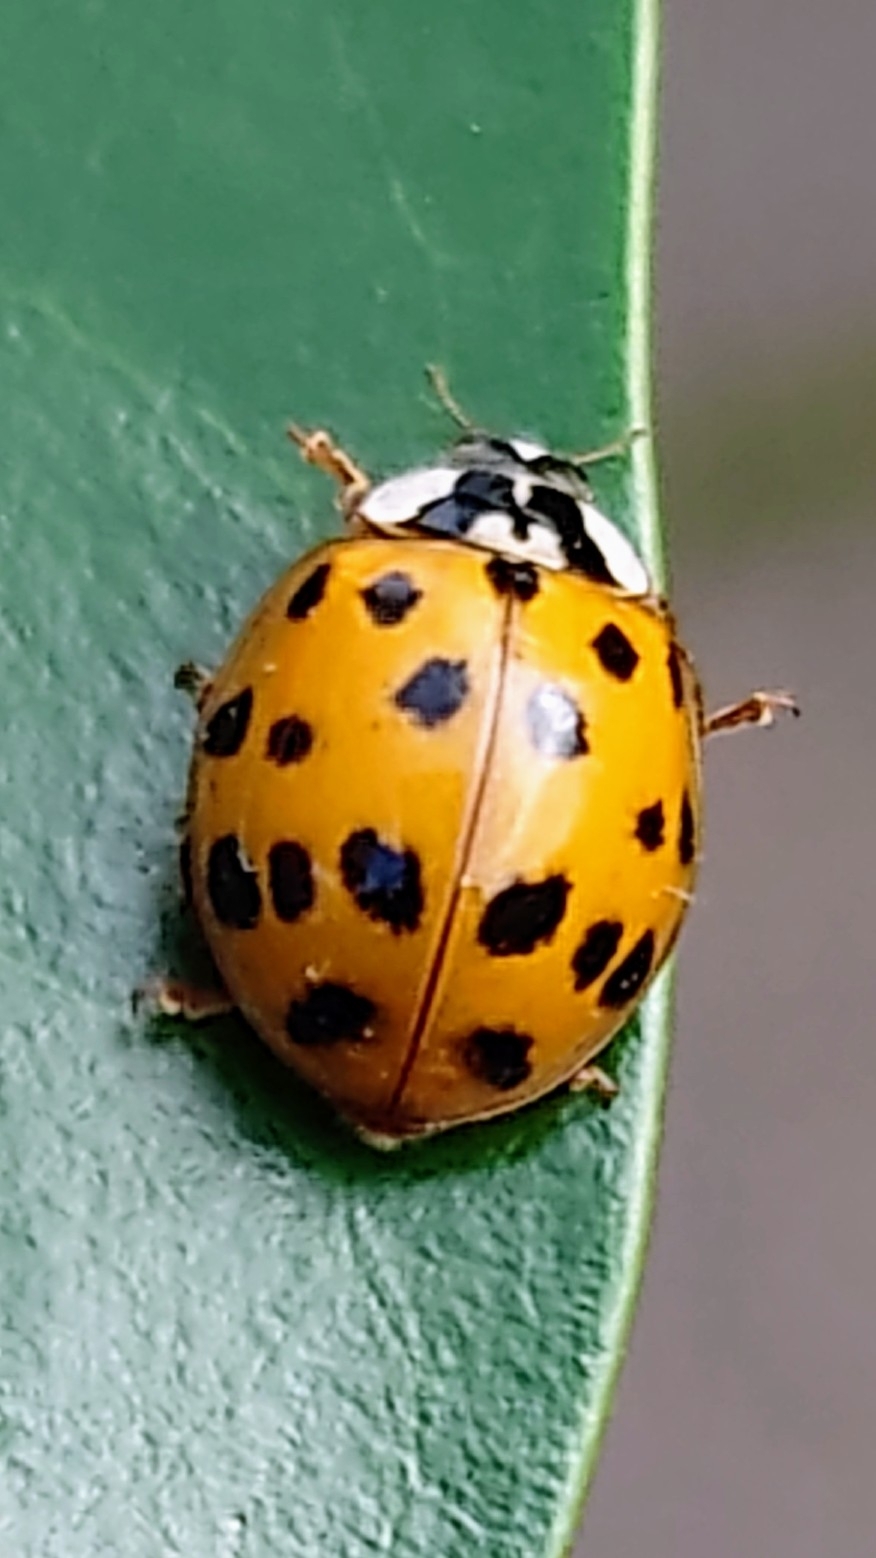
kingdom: Animalia
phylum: Arthropoda
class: Insecta
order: Coleoptera
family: Coccinellidae
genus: Harmonia
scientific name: Harmonia axyridis
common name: Harlequin ladybird
